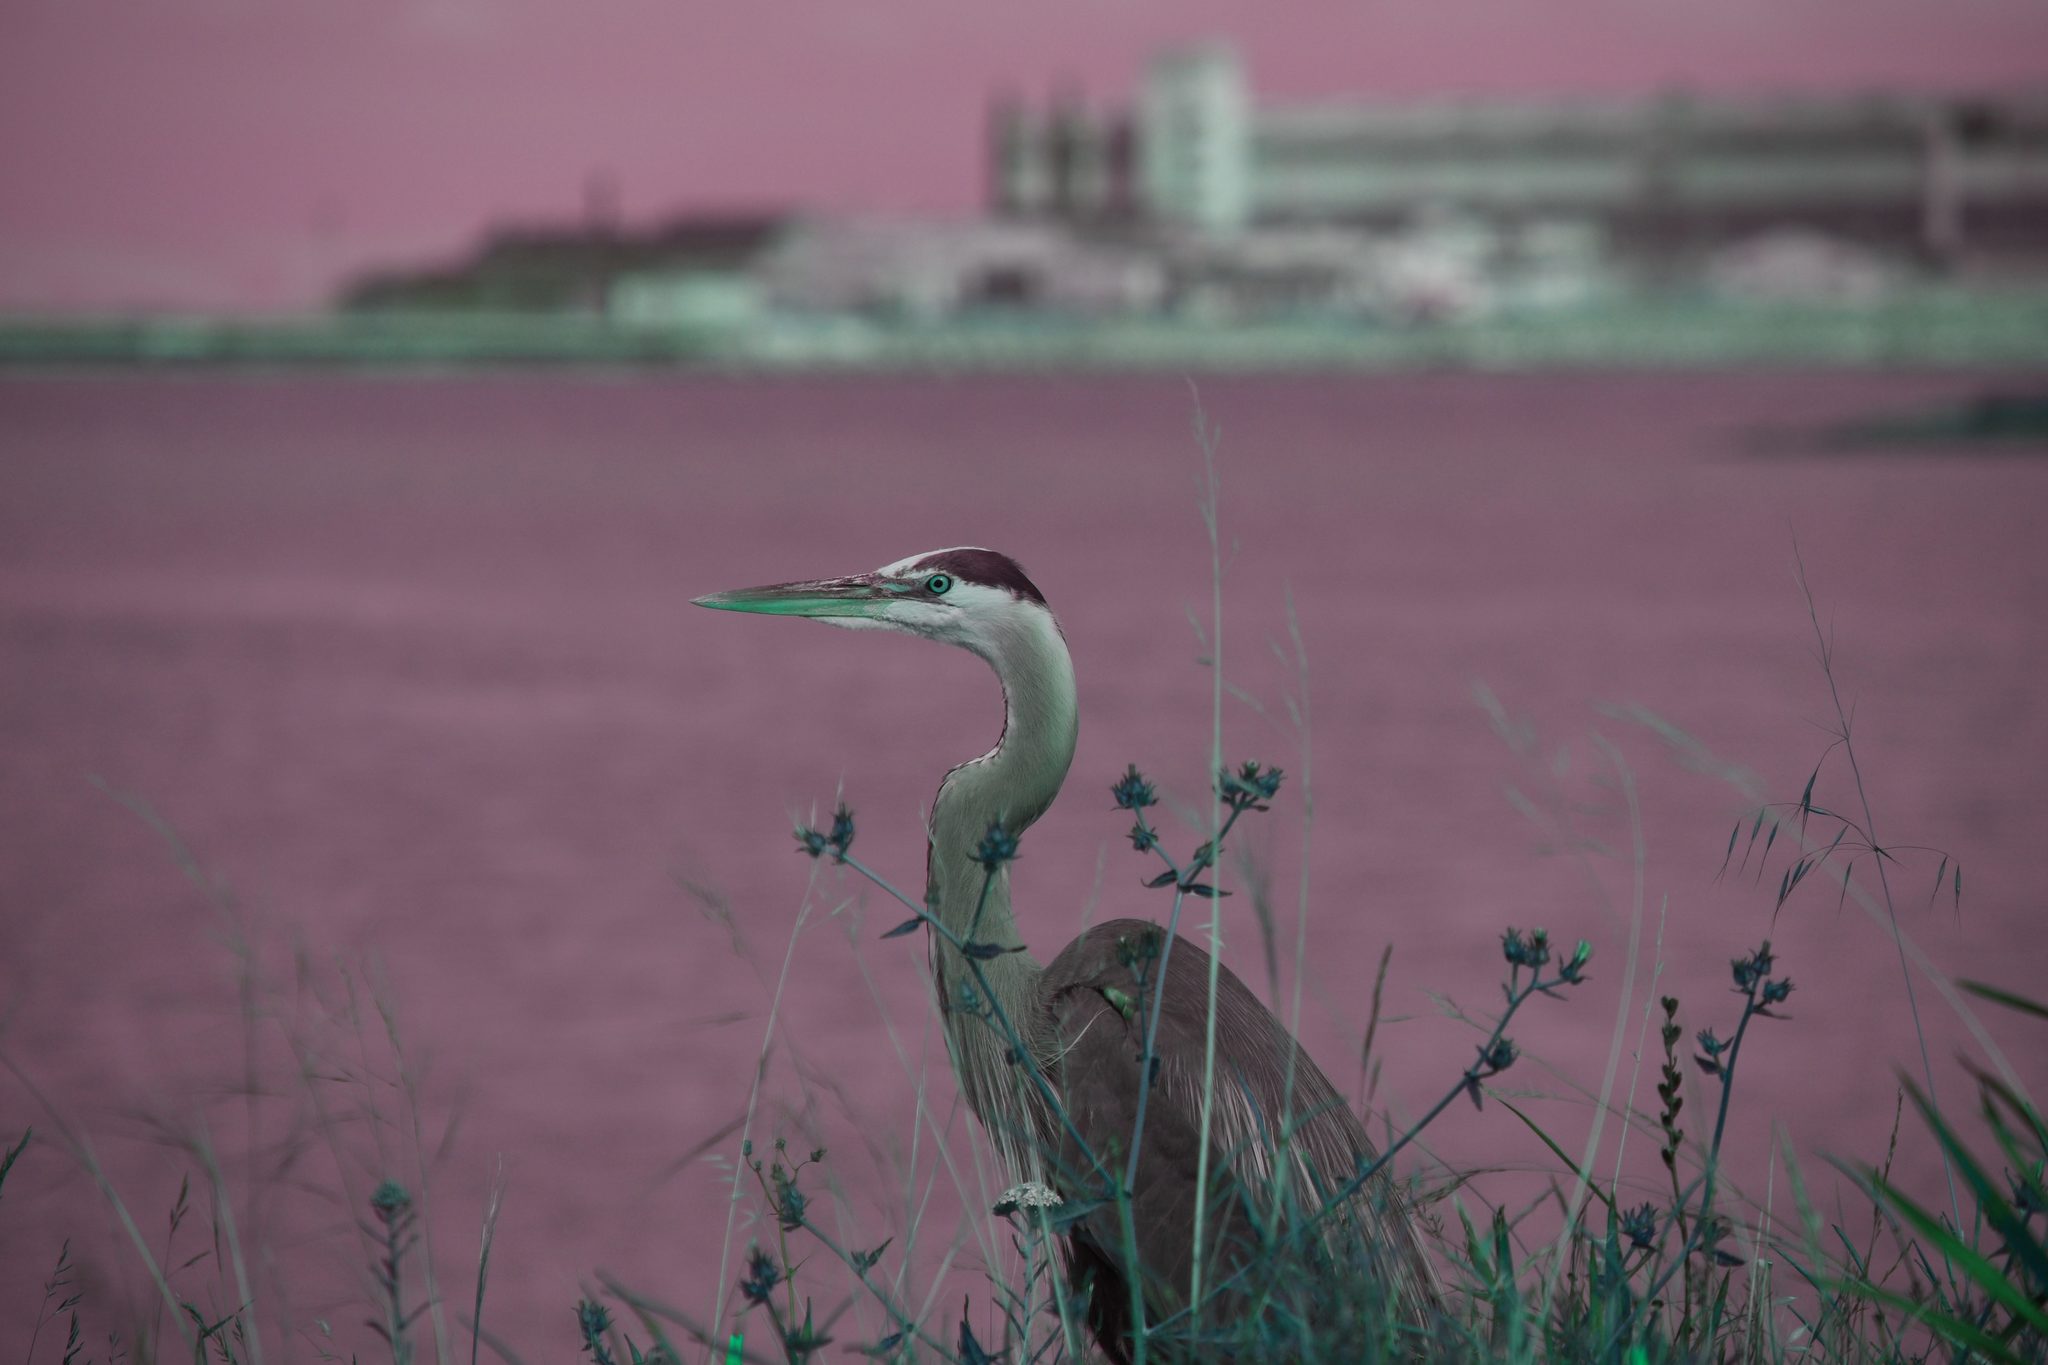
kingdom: Animalia
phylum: Chordata
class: Aves
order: Pelecaniformes
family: Ardeidae
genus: Ardea
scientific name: Ardea herodias
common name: Great blue heron
